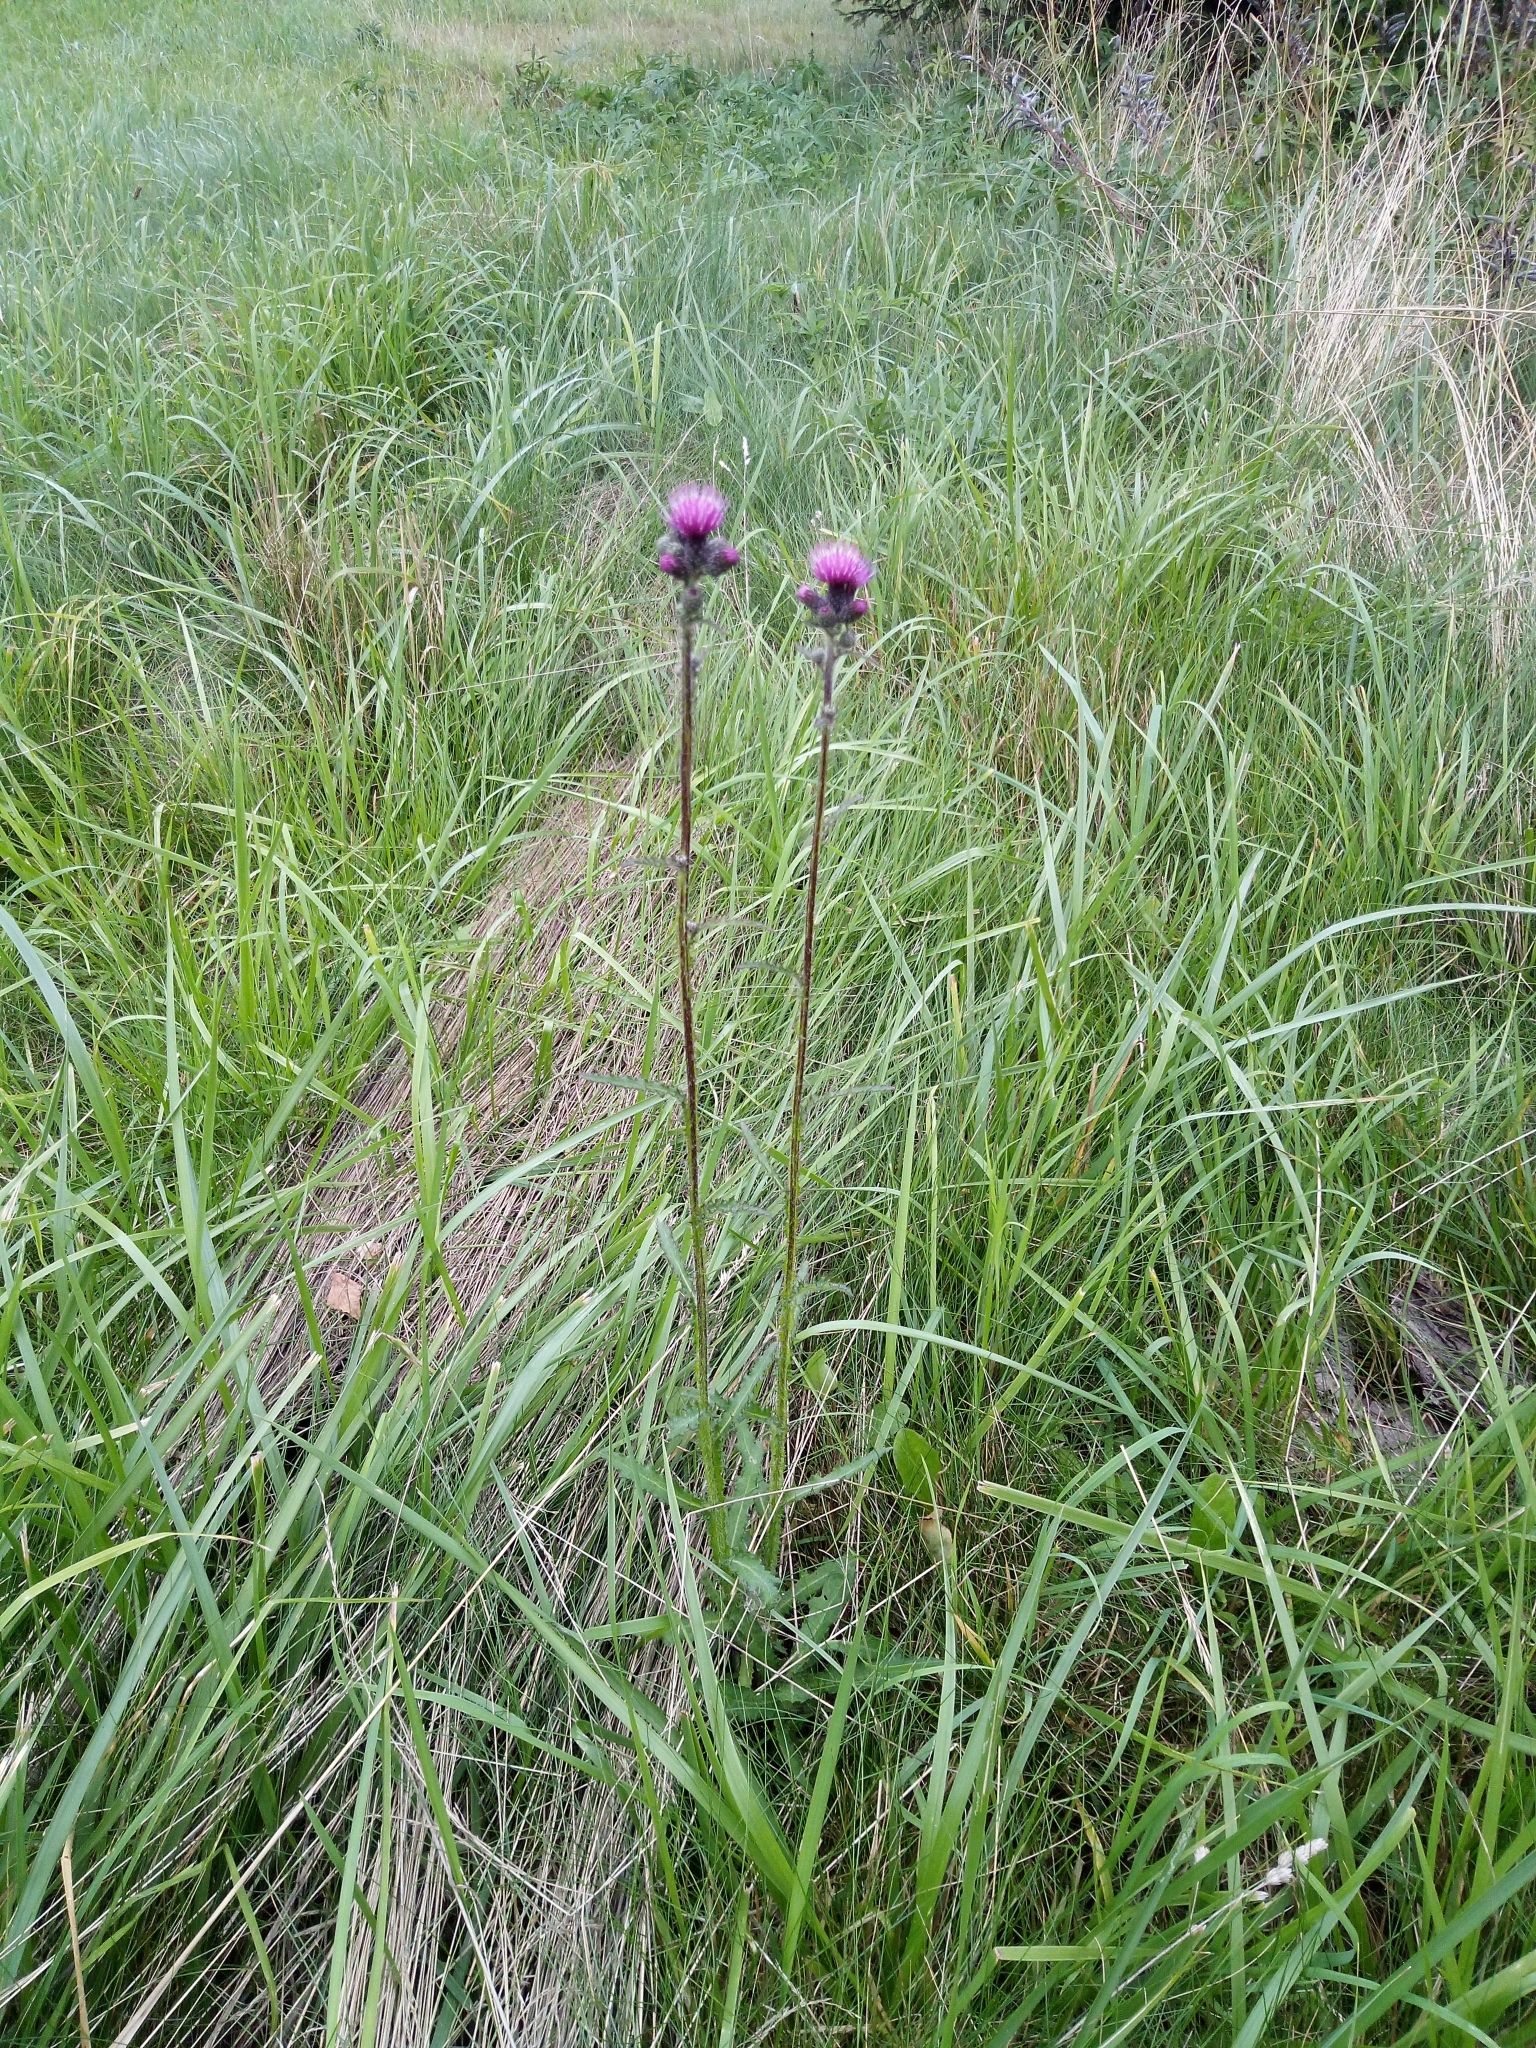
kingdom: Plantae
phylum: Tracheophyta
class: Magnoliopsida
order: Asterales
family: Asteraceae
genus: Cirsium
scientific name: Cirsium palustre
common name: Marsh thistle
